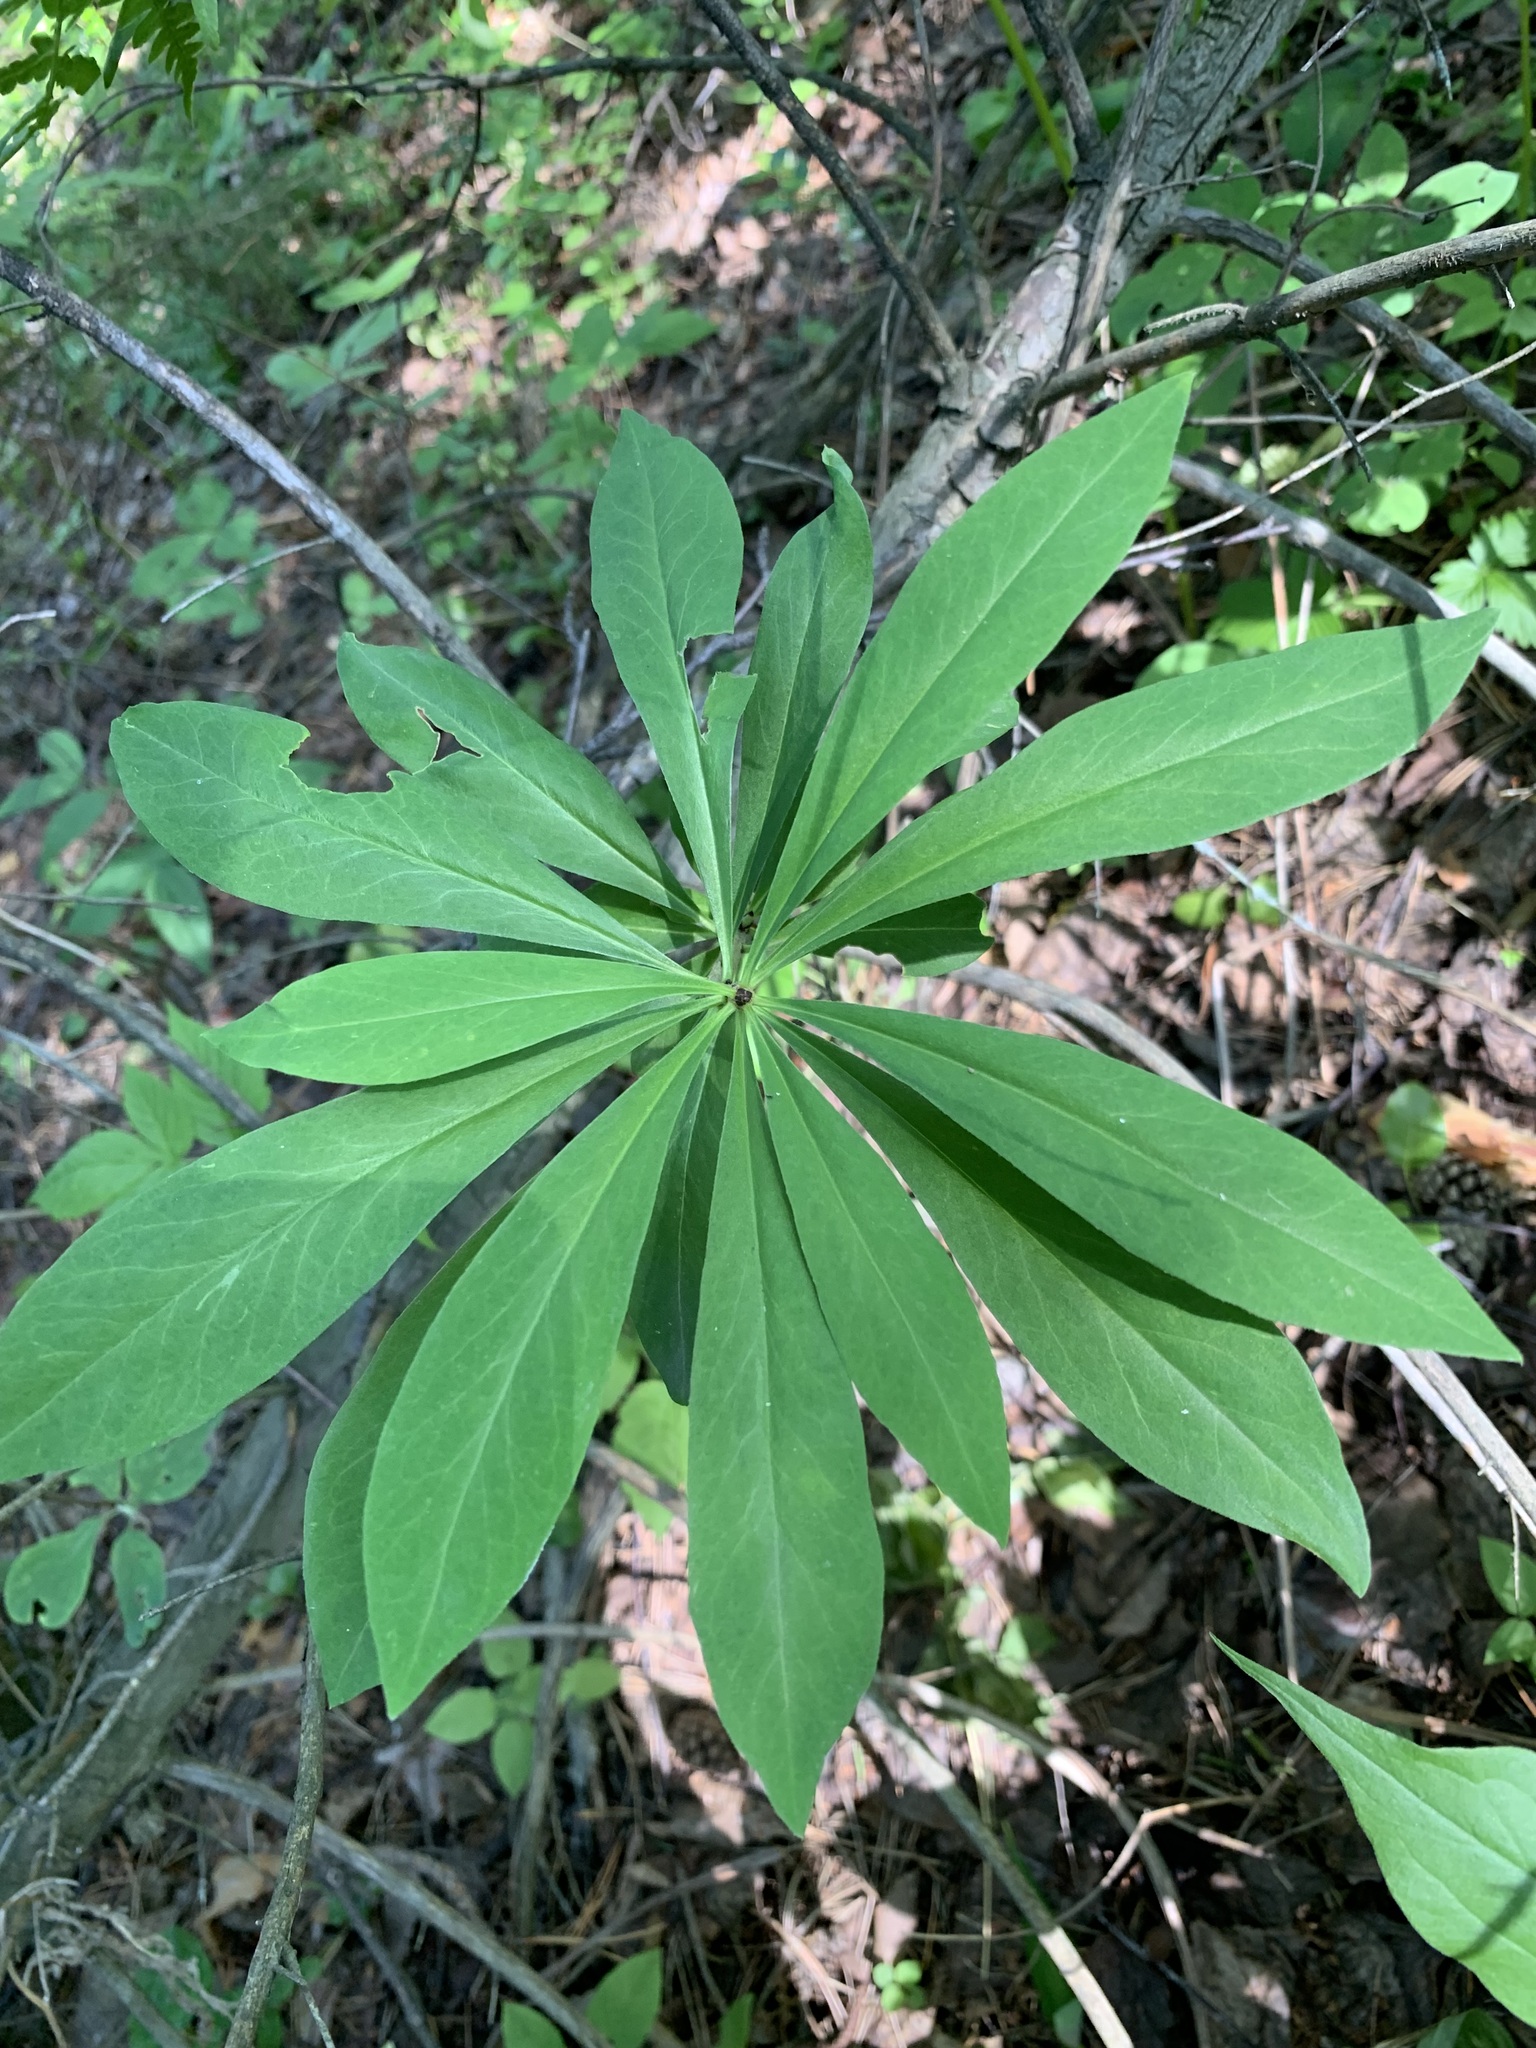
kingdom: Plantae
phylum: Tracheophyta
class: Magnoliopsida
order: Malvales
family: Thymelaeaceae
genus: Daphne
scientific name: Daphne mezereum
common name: Mezereon
